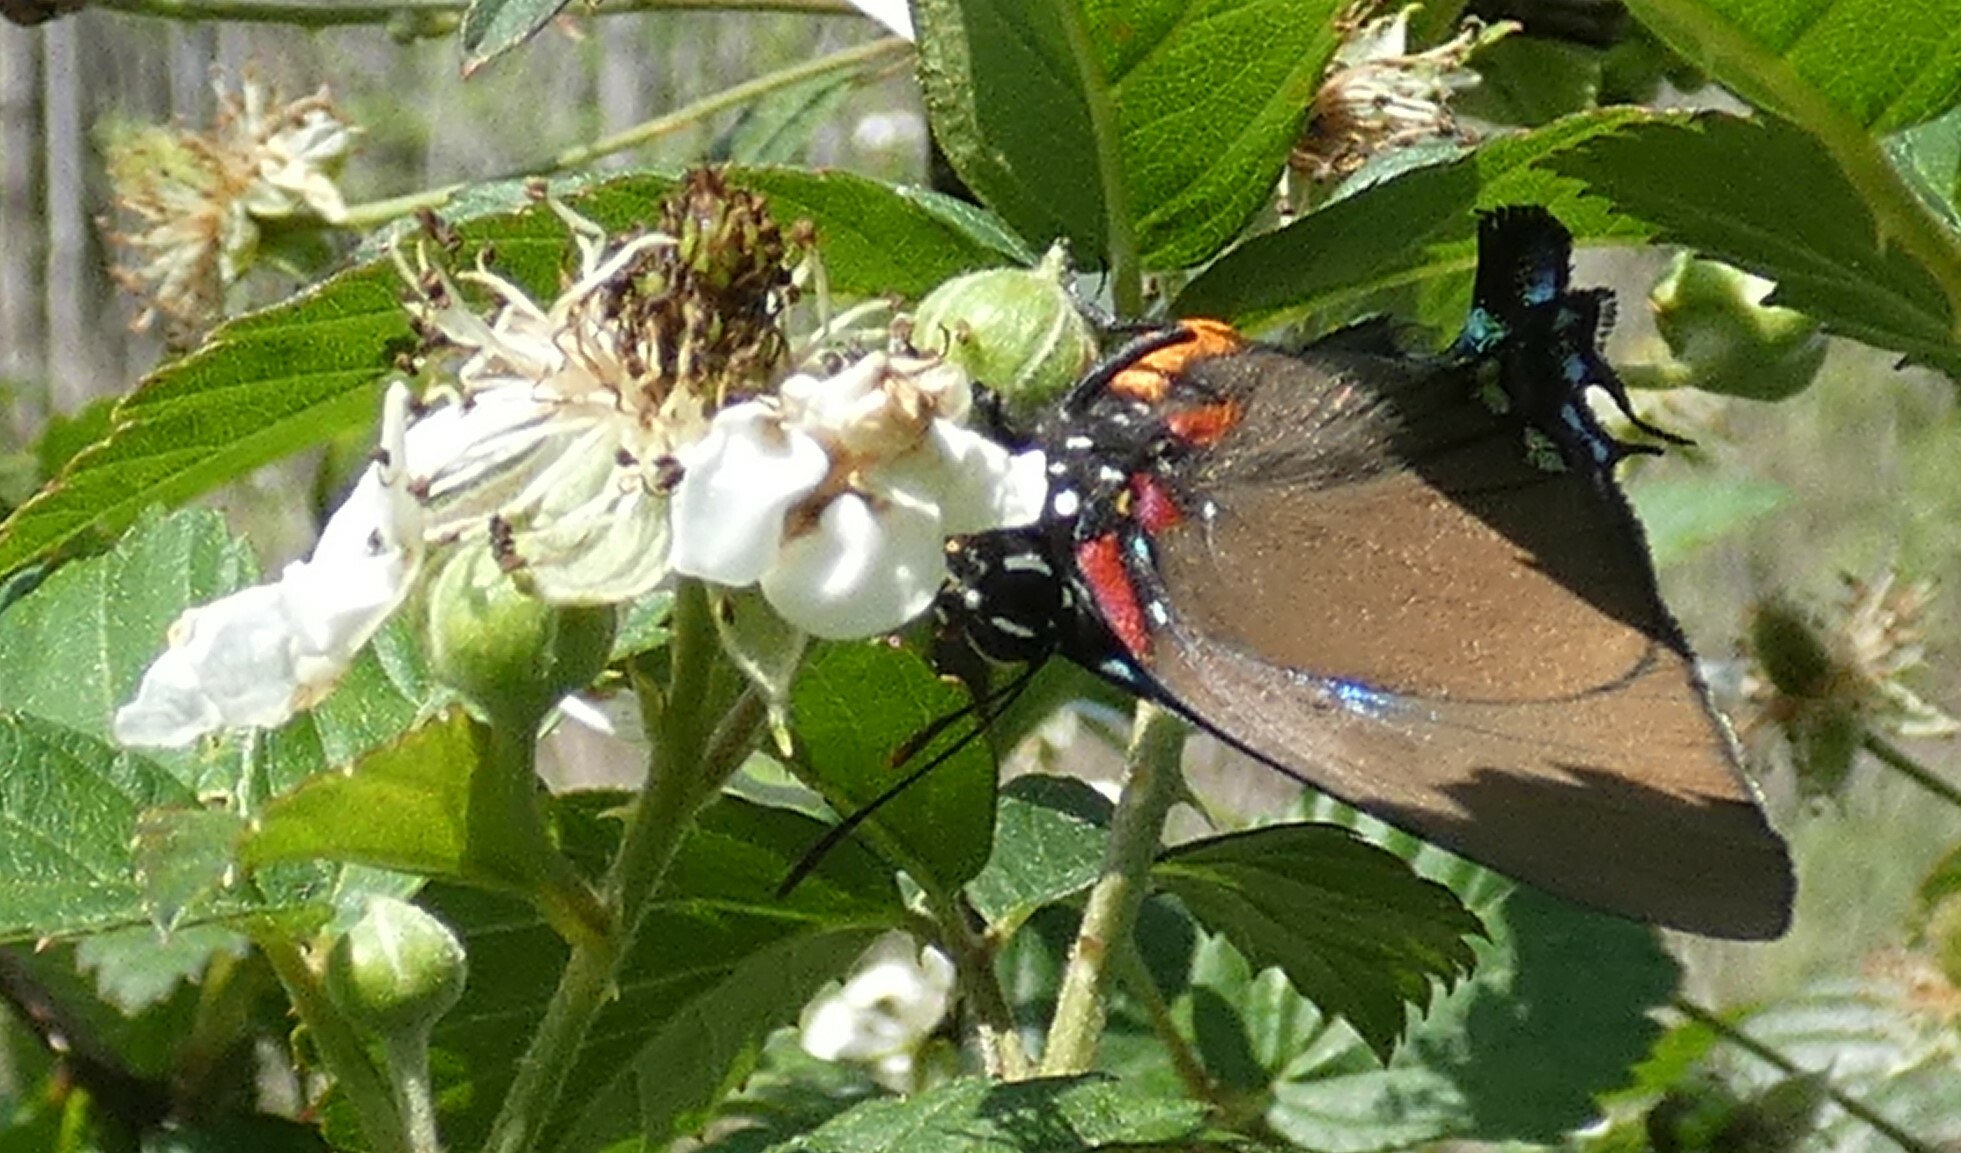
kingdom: Animalia
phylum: Arthropoda
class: Insecta
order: Lepidoptera
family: Lycaenidae
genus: Atlides
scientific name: Atlides halesus
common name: Great purple hairstreak
